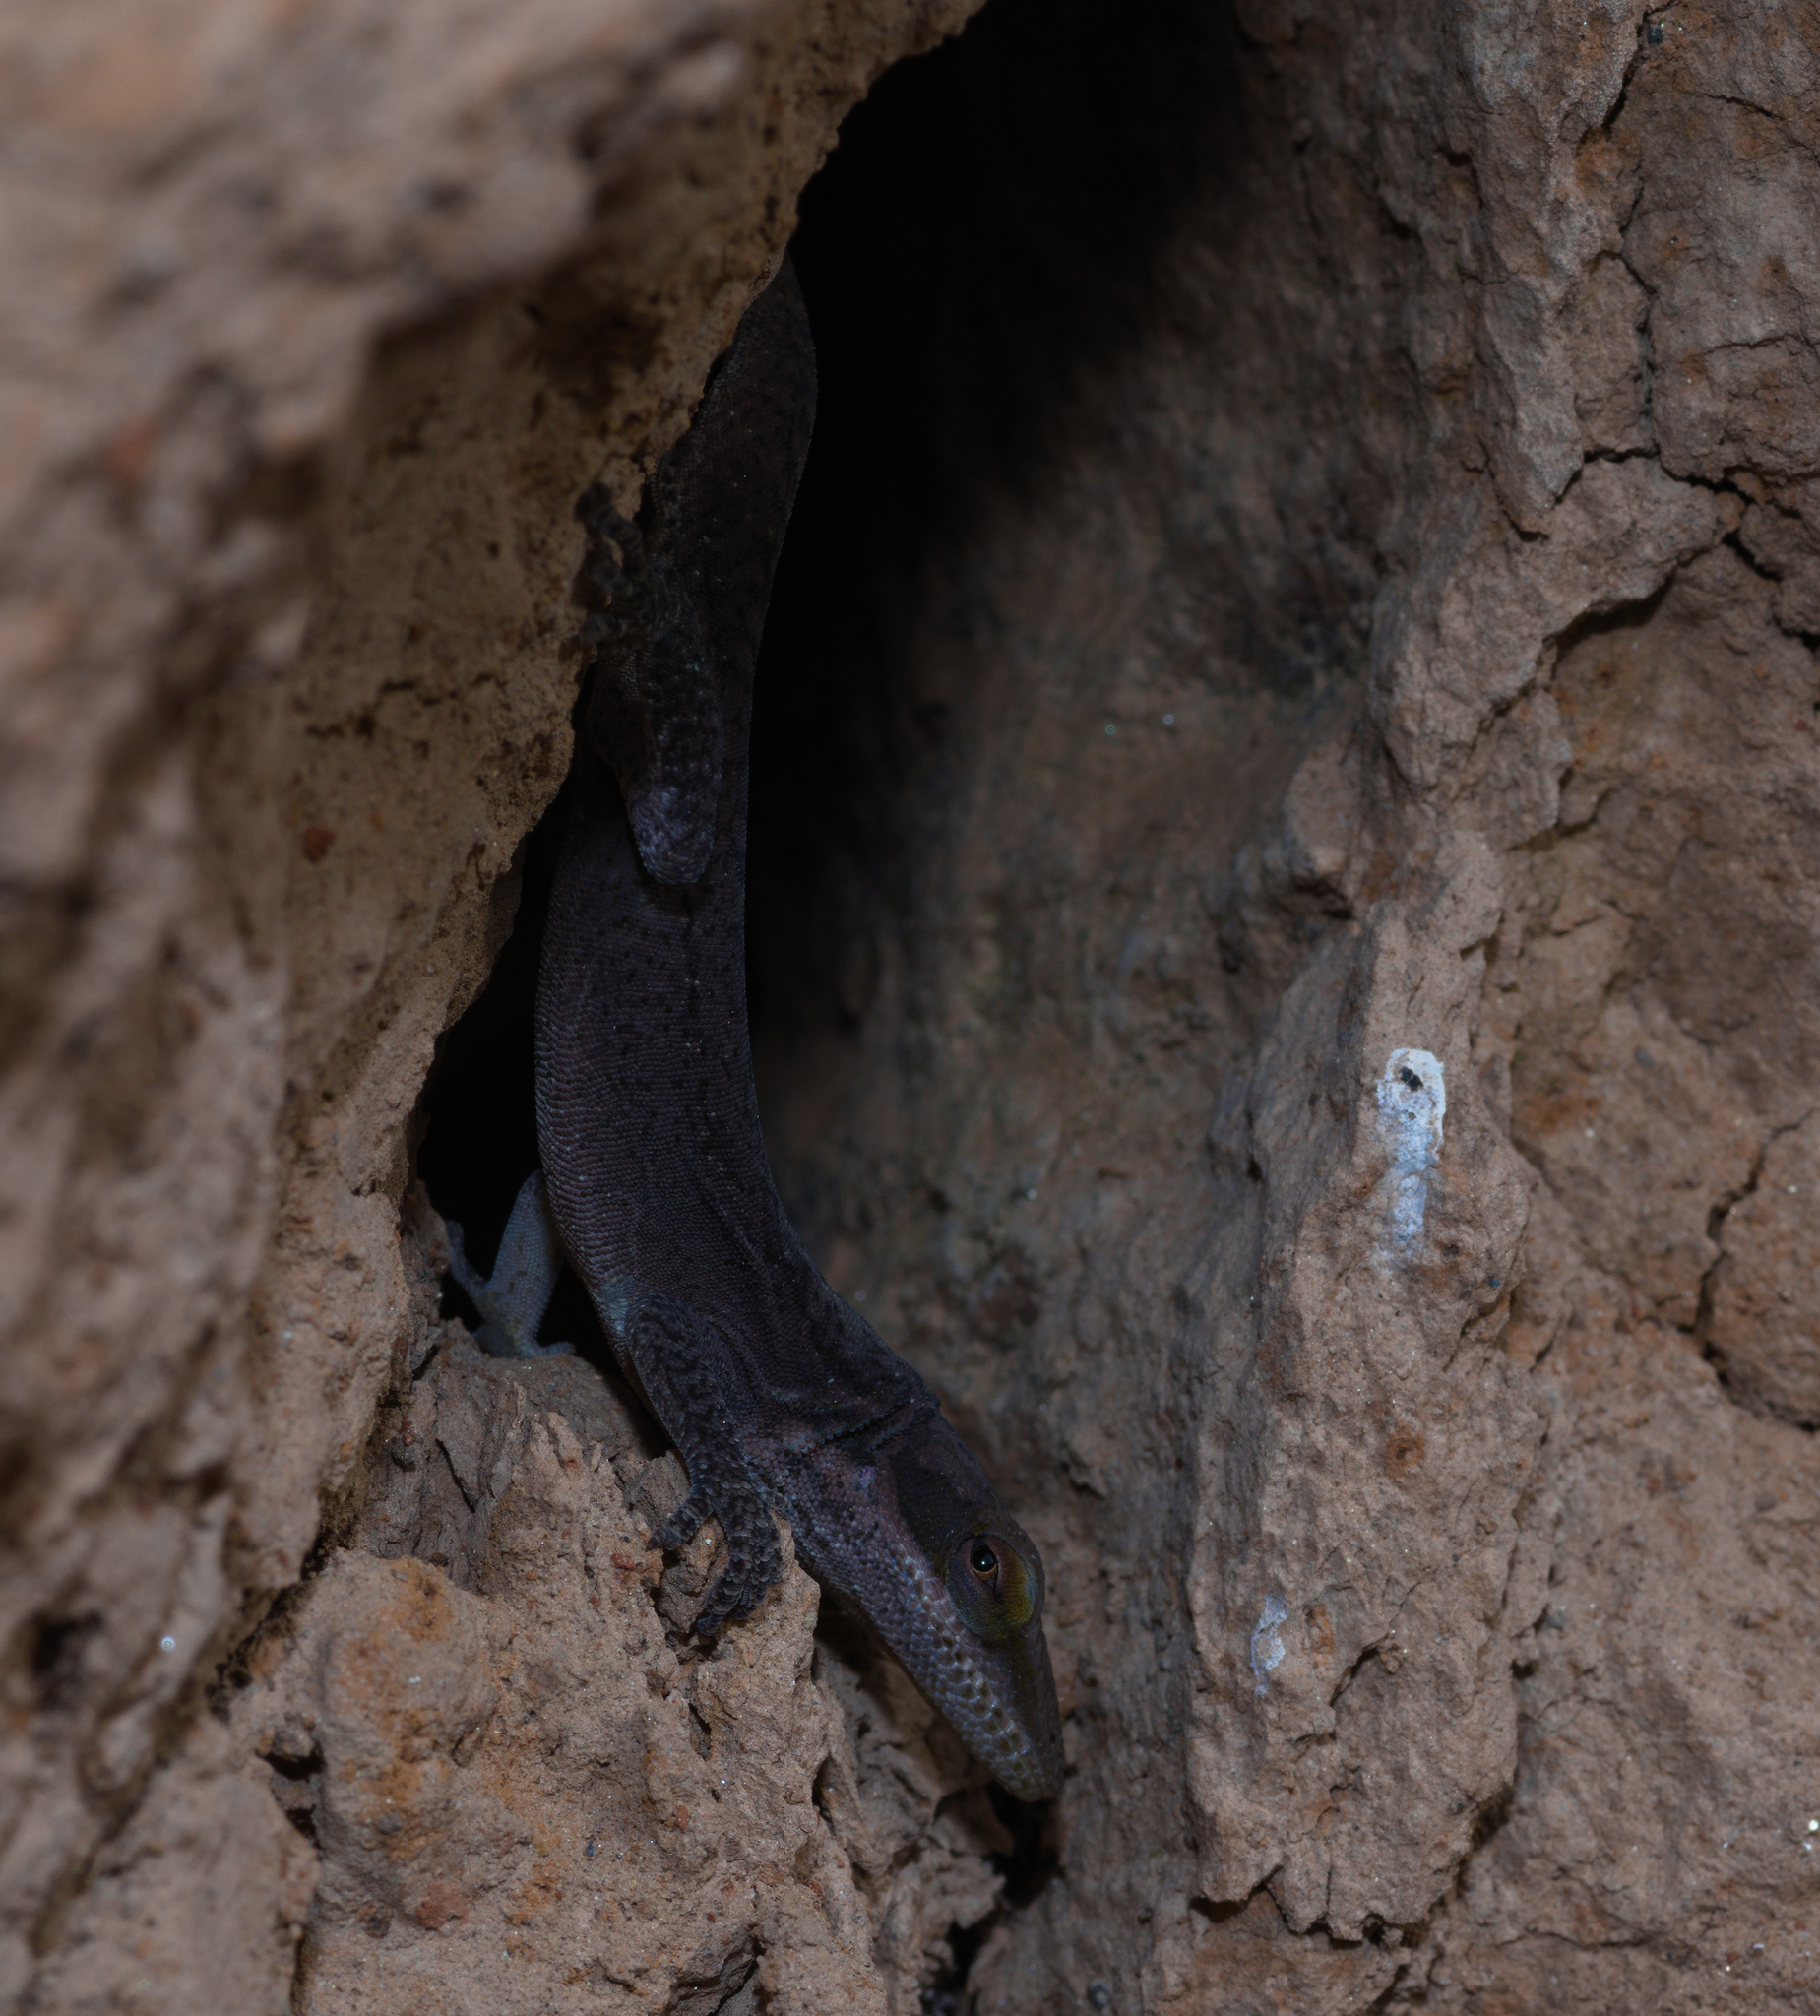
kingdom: Animalia
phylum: Chordata
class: Squamata
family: Dactyloidae
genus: Anolis
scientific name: Anolis carolinensis
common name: Green anole
